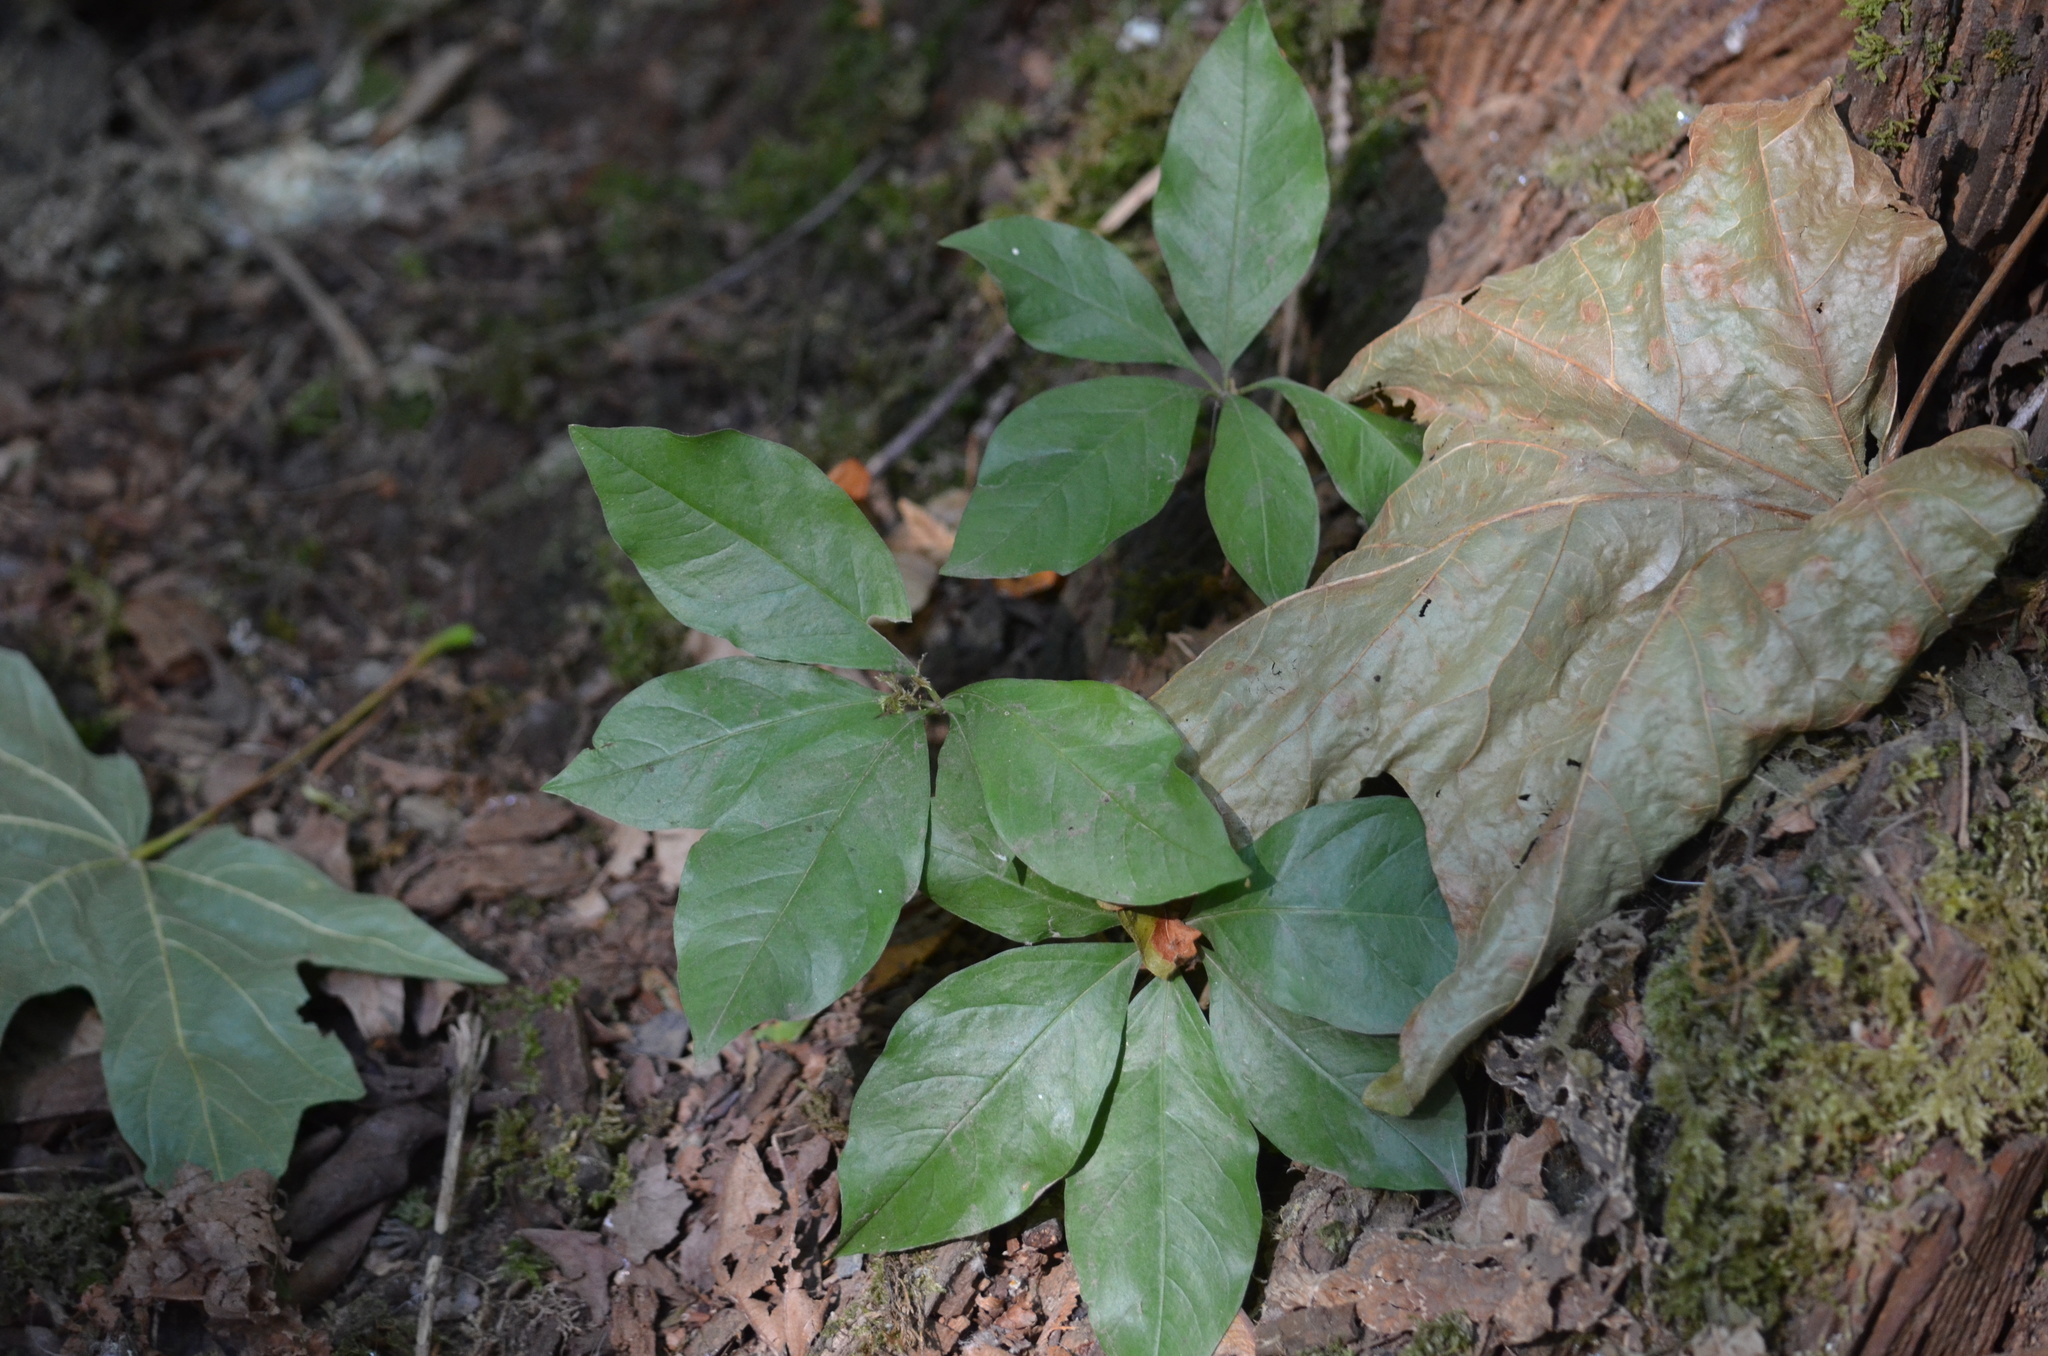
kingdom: Plantae
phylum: Tracheophyta
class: Magnoliopsida
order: Ericales
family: Primulaceae
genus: Lysimachia
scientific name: Lysimachia latifolia
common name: Pacific starflower
